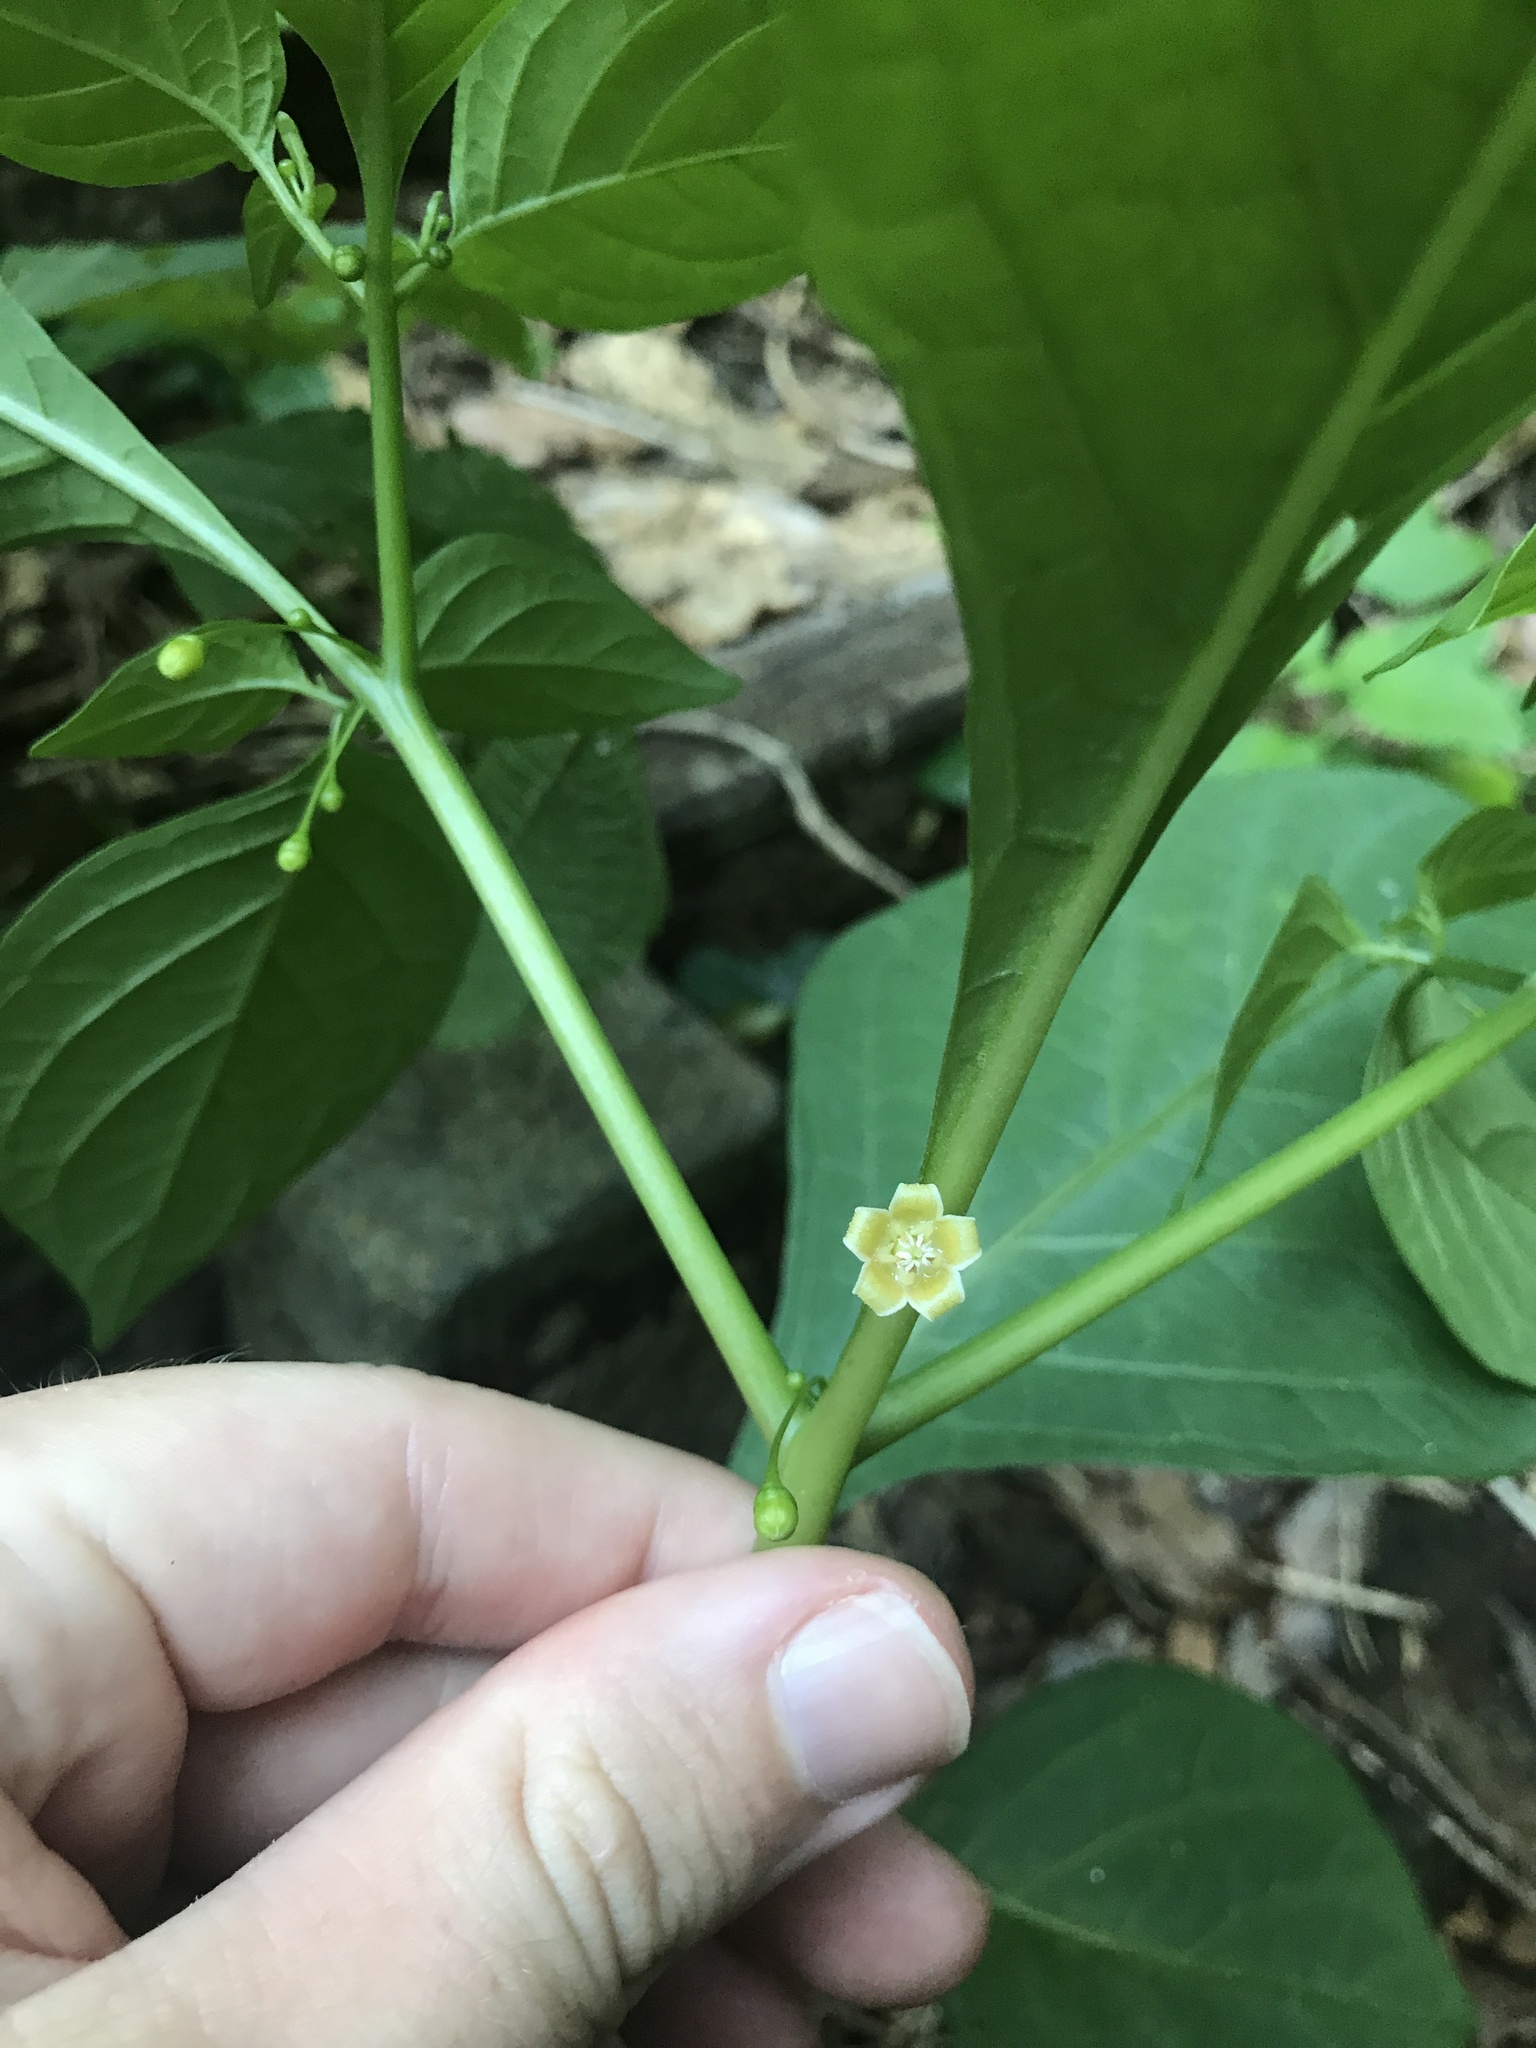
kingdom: Plantae
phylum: Tracheophyta
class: Magnoliopsida
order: Solanales
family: Solanaceae
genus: Tubocapsicum
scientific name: Tubocapsicum anomalum
